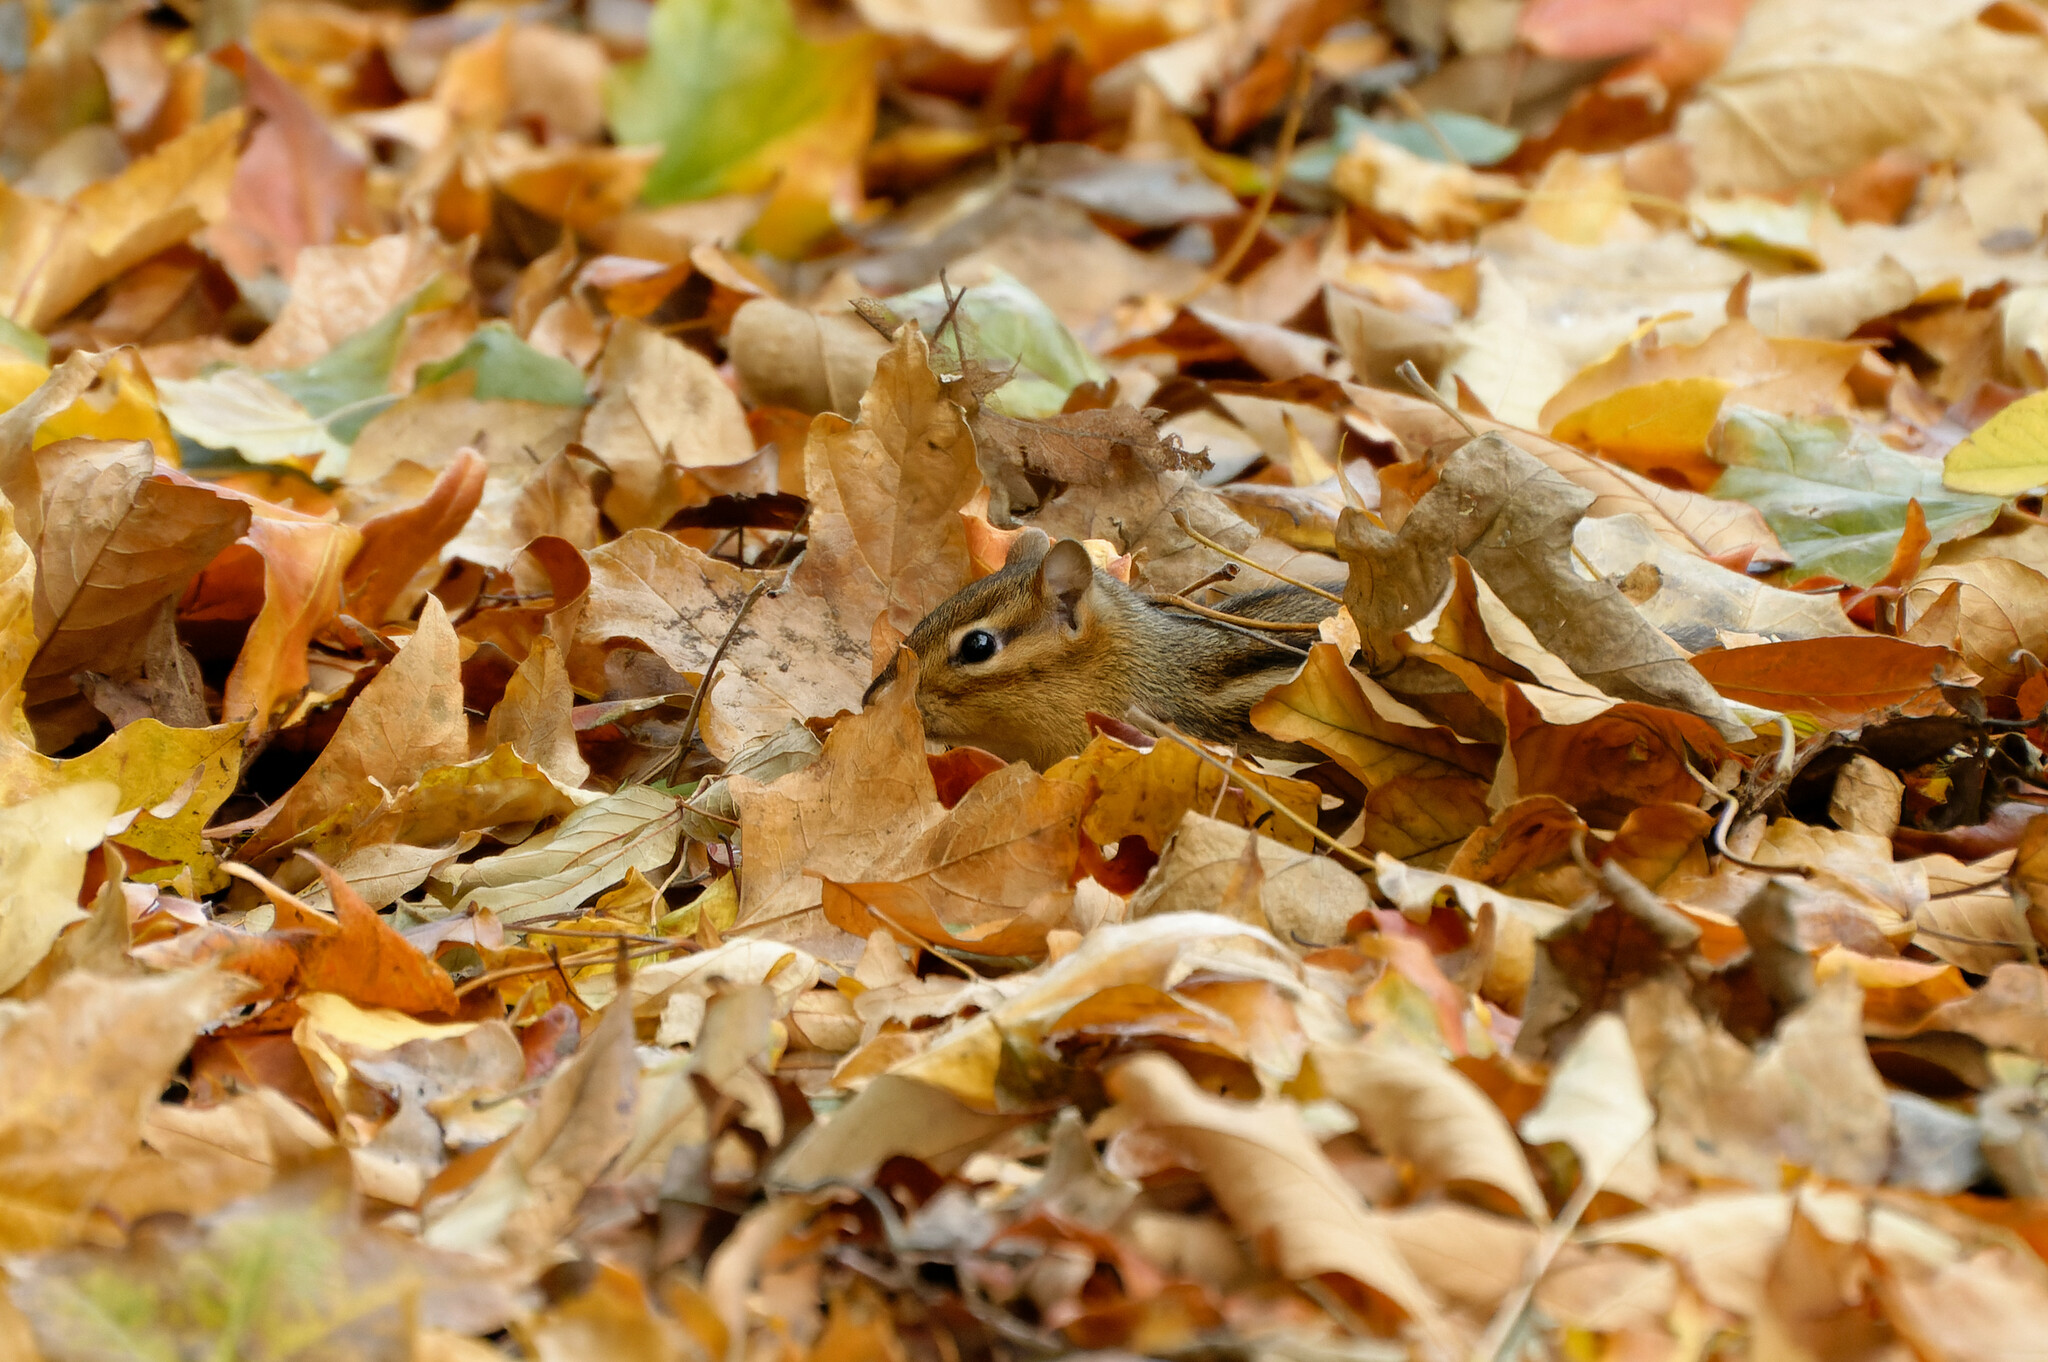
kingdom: Animalia
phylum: Chordata
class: Mammalia
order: Rodentia
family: Sciuridae
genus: Tamias
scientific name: Tamias striatus
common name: Eastern chipmunk
